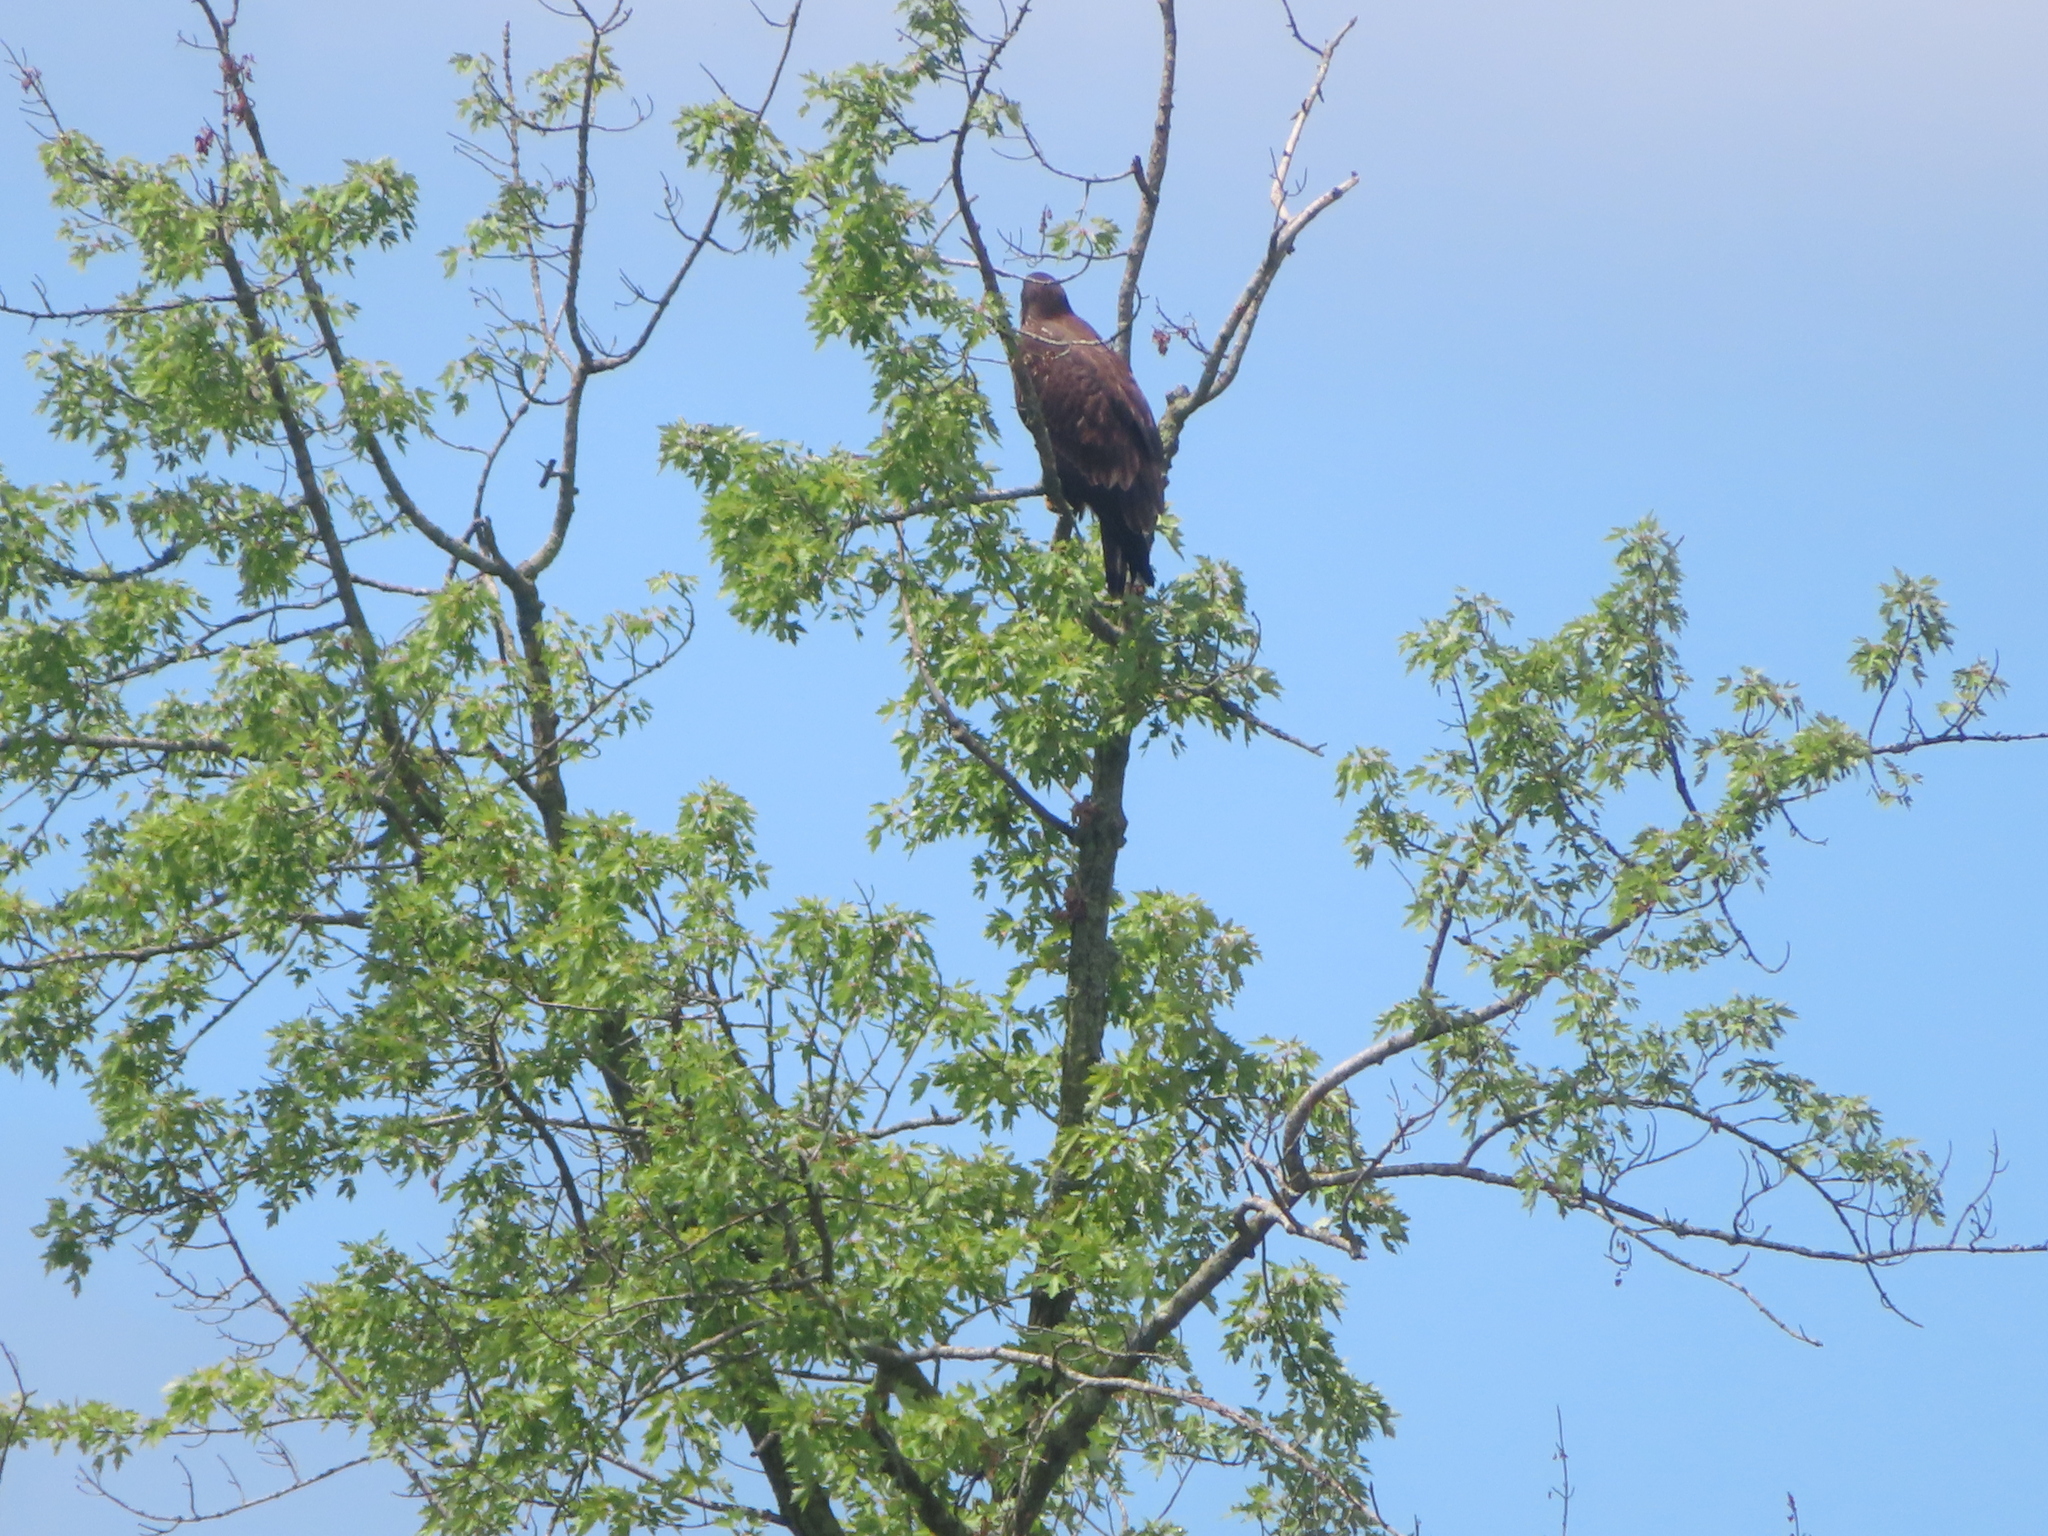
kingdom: Animalia
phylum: Chordata
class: Aves
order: Accipitriformes
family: Accipitridae
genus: Haliaeetus
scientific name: Haliaeetus leucocephalus
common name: Bald eagle
